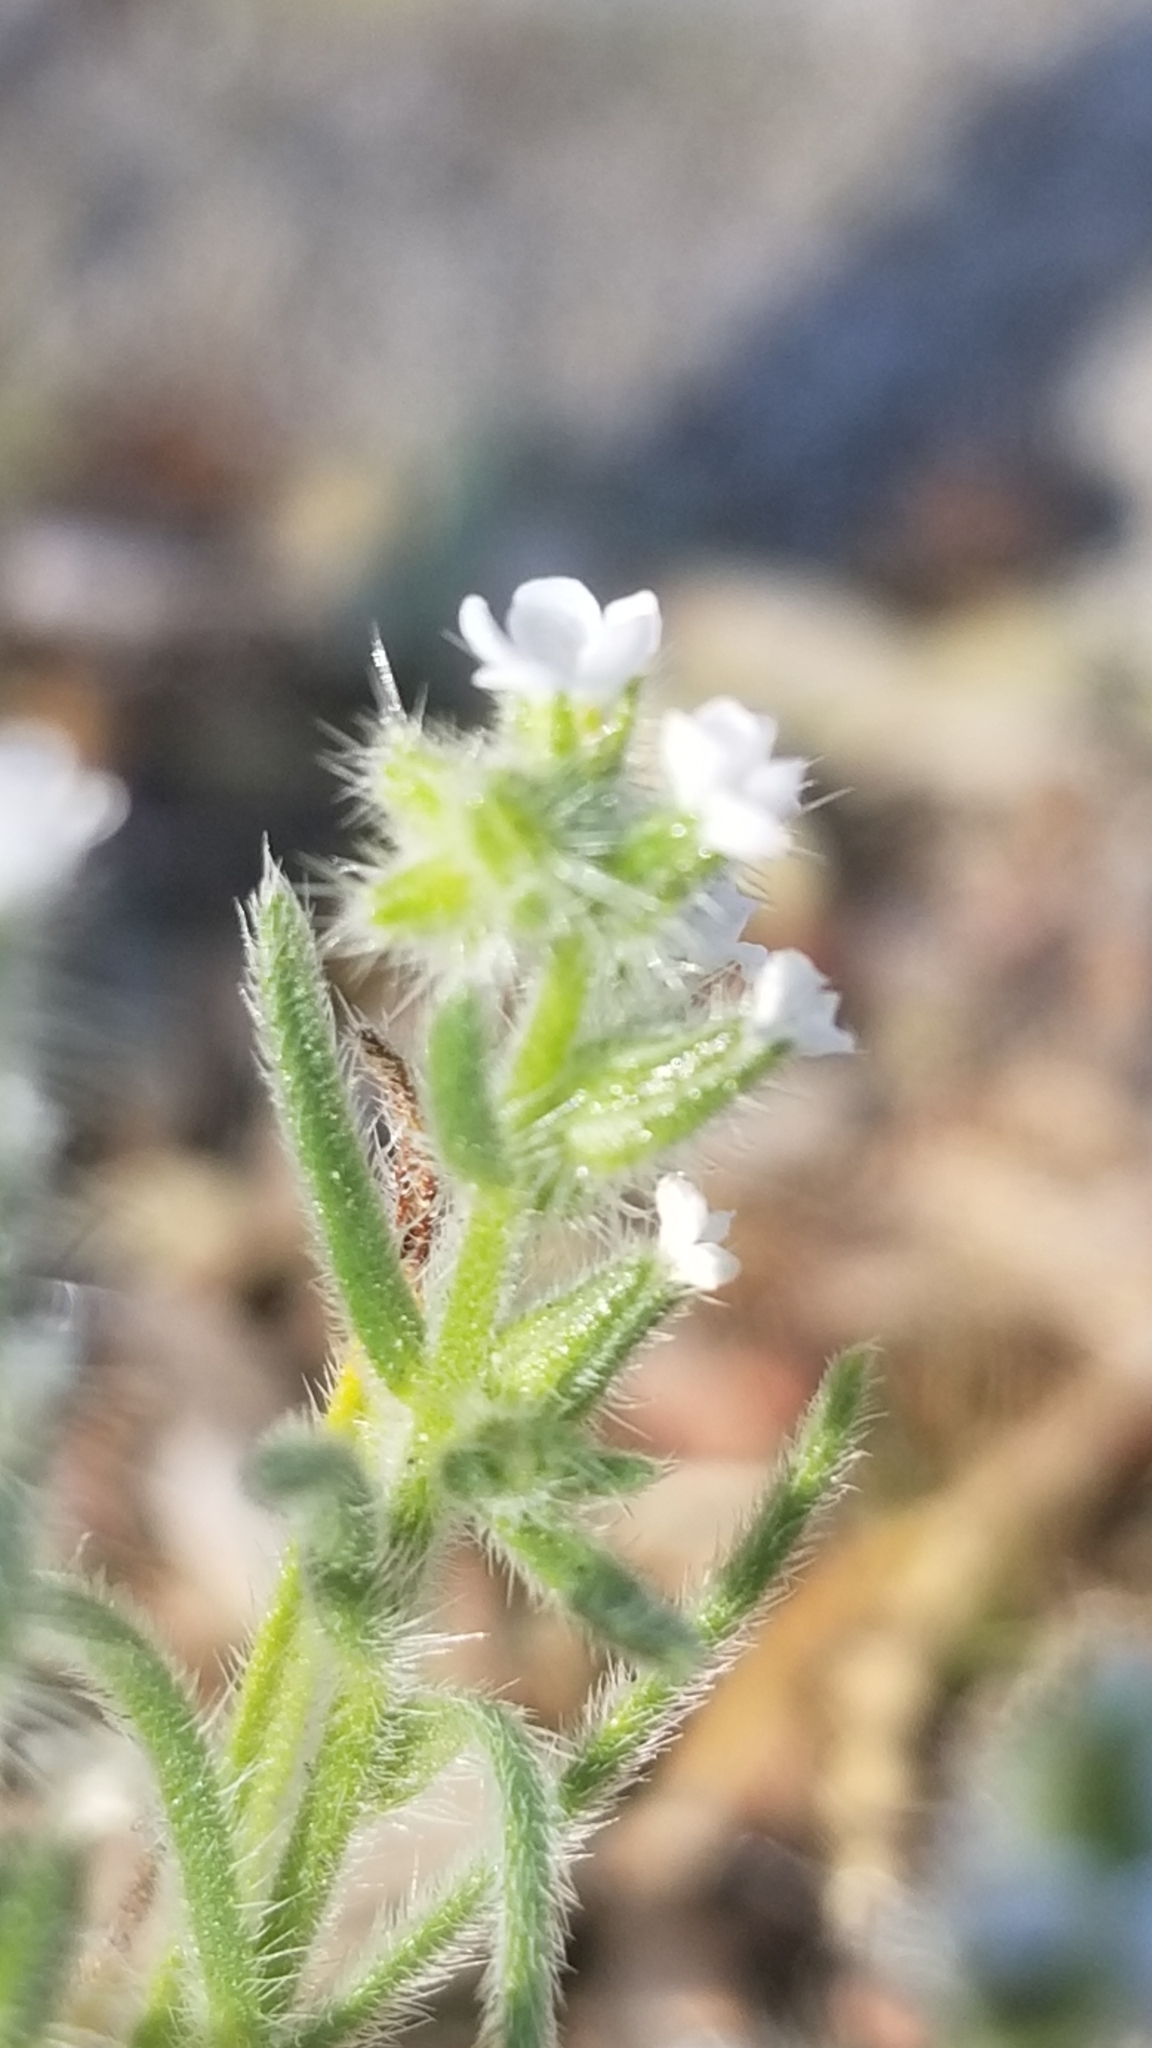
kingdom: Plantae
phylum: Tracheophyta
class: Magnoliopsida
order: Boraginales
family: Boraginaceae
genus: Johnstonella
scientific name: Johnstonella angustifolia
